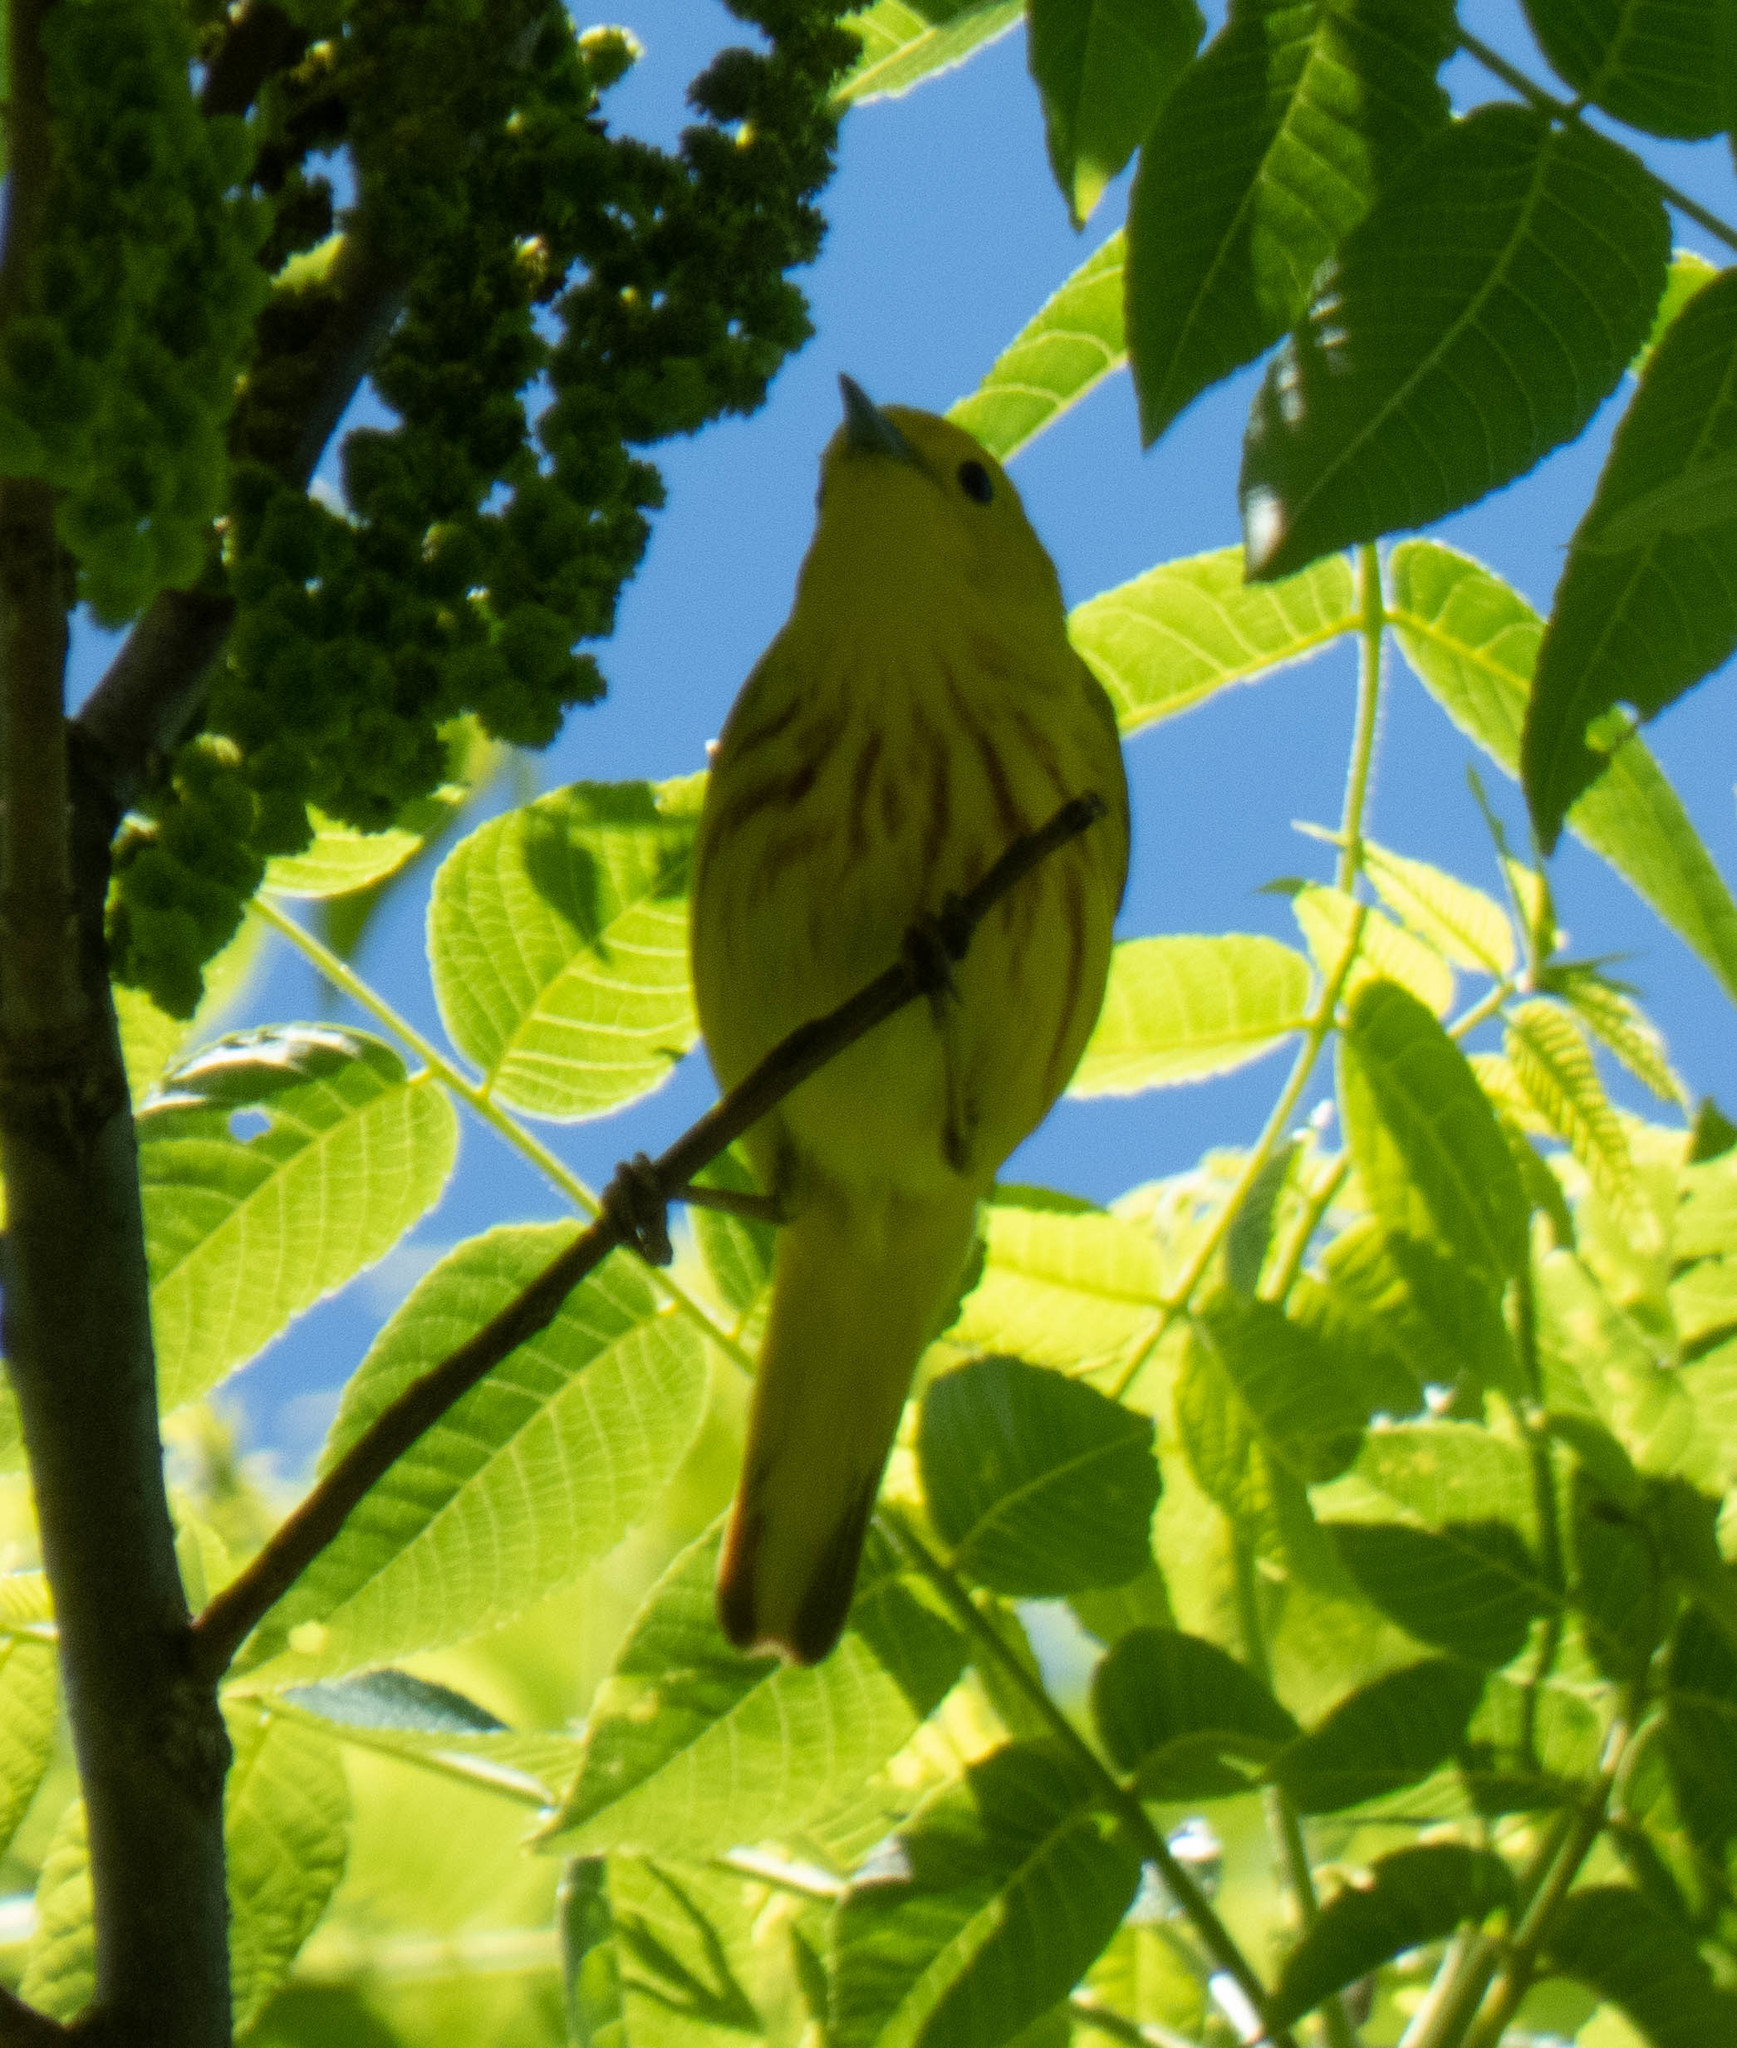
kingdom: Animalia
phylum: Chordata
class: Aves
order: Passeriformes
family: Parulidae
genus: Setophaga
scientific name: Setophaga petechia
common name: Yellow warbler
